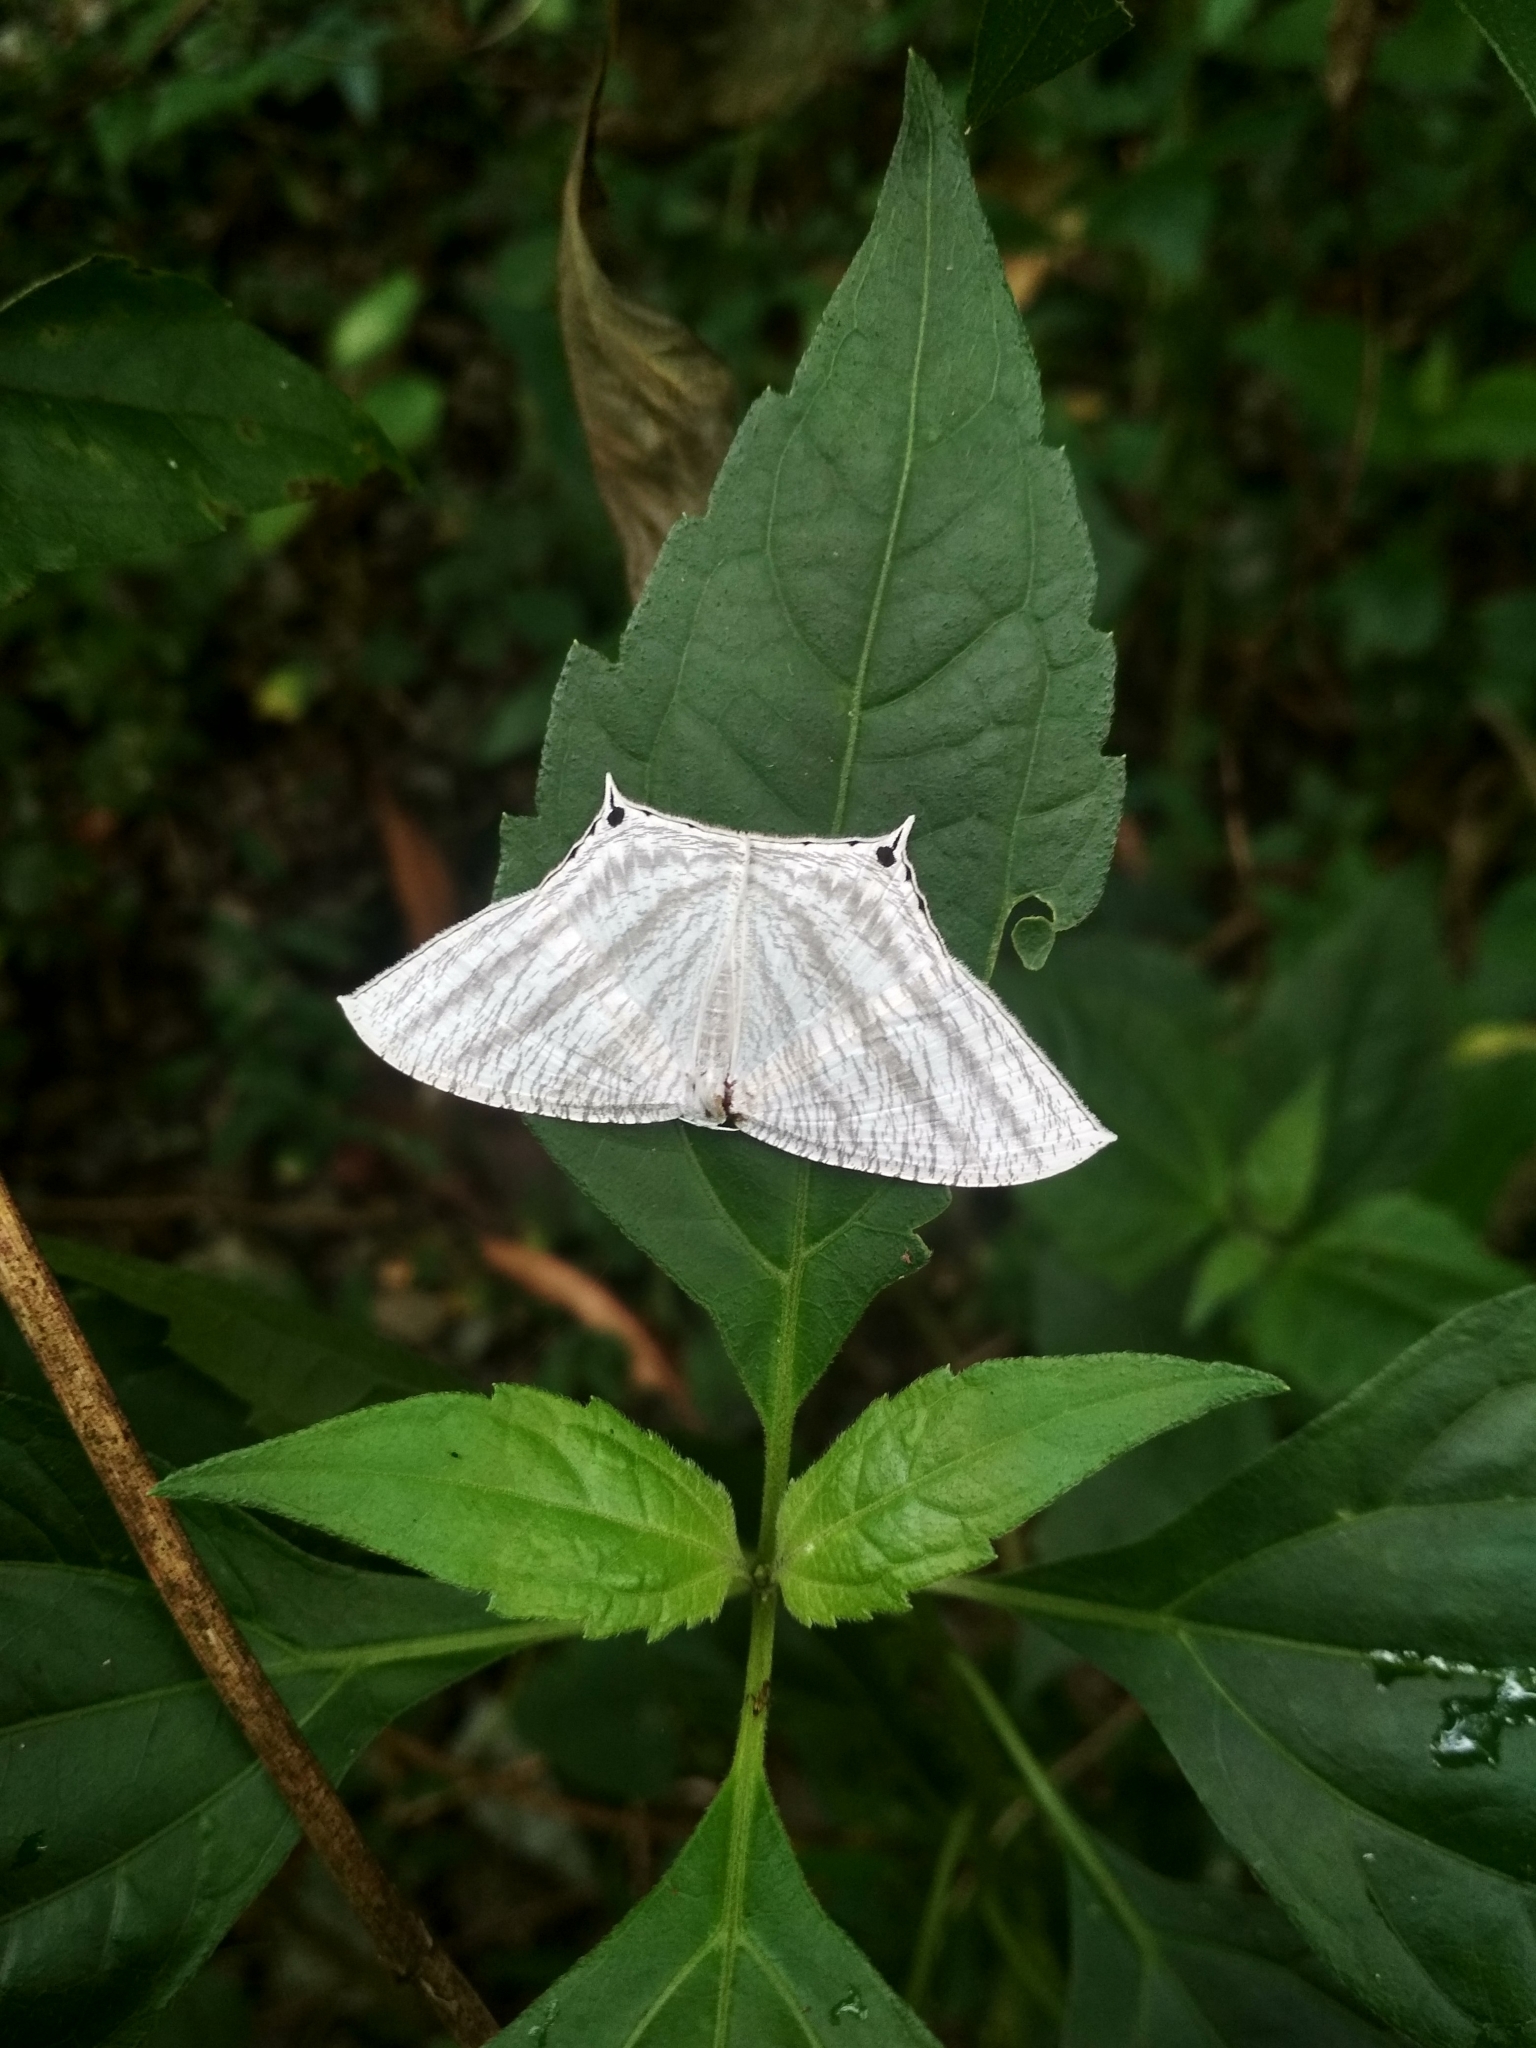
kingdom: Animalia
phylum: Arthropoda
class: Insecta
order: Lepidoptera
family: Uraniidae
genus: Micronia
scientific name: Micronia aculeata
